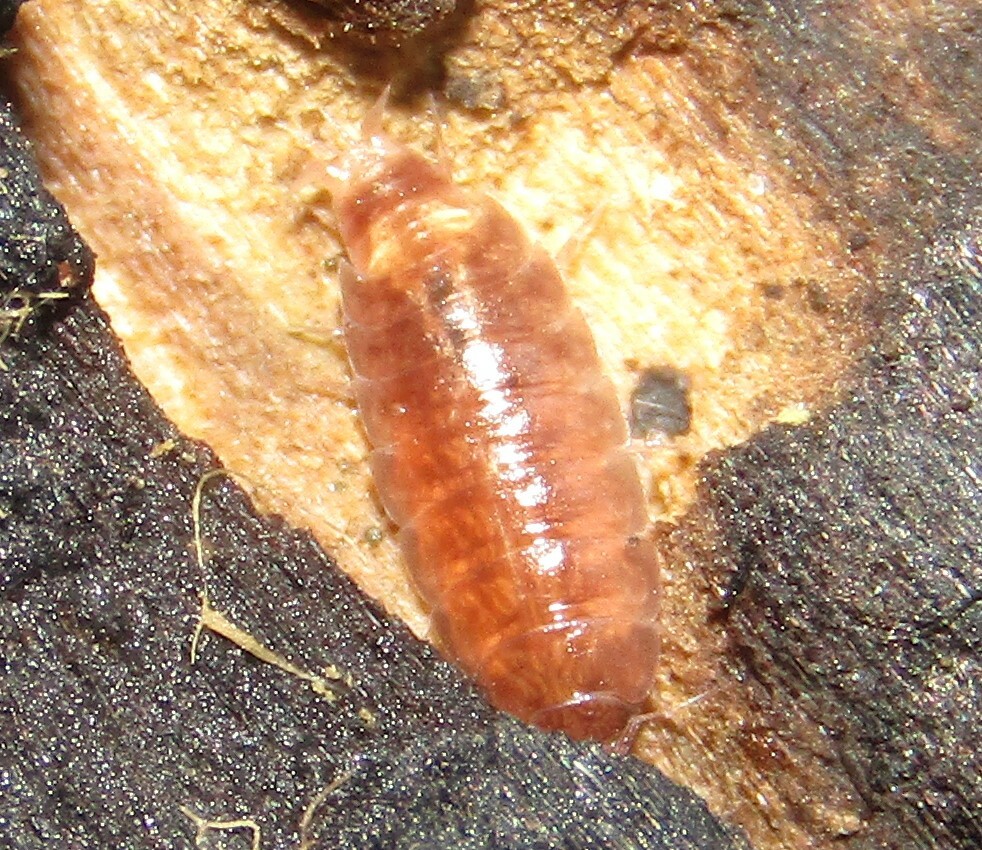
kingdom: Animalia
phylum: Arthropoda
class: Malacostraca
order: Isopoda
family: Trichoniscidae
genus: Hyloniscus
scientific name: Hyloniscus riparius
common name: Isopod
